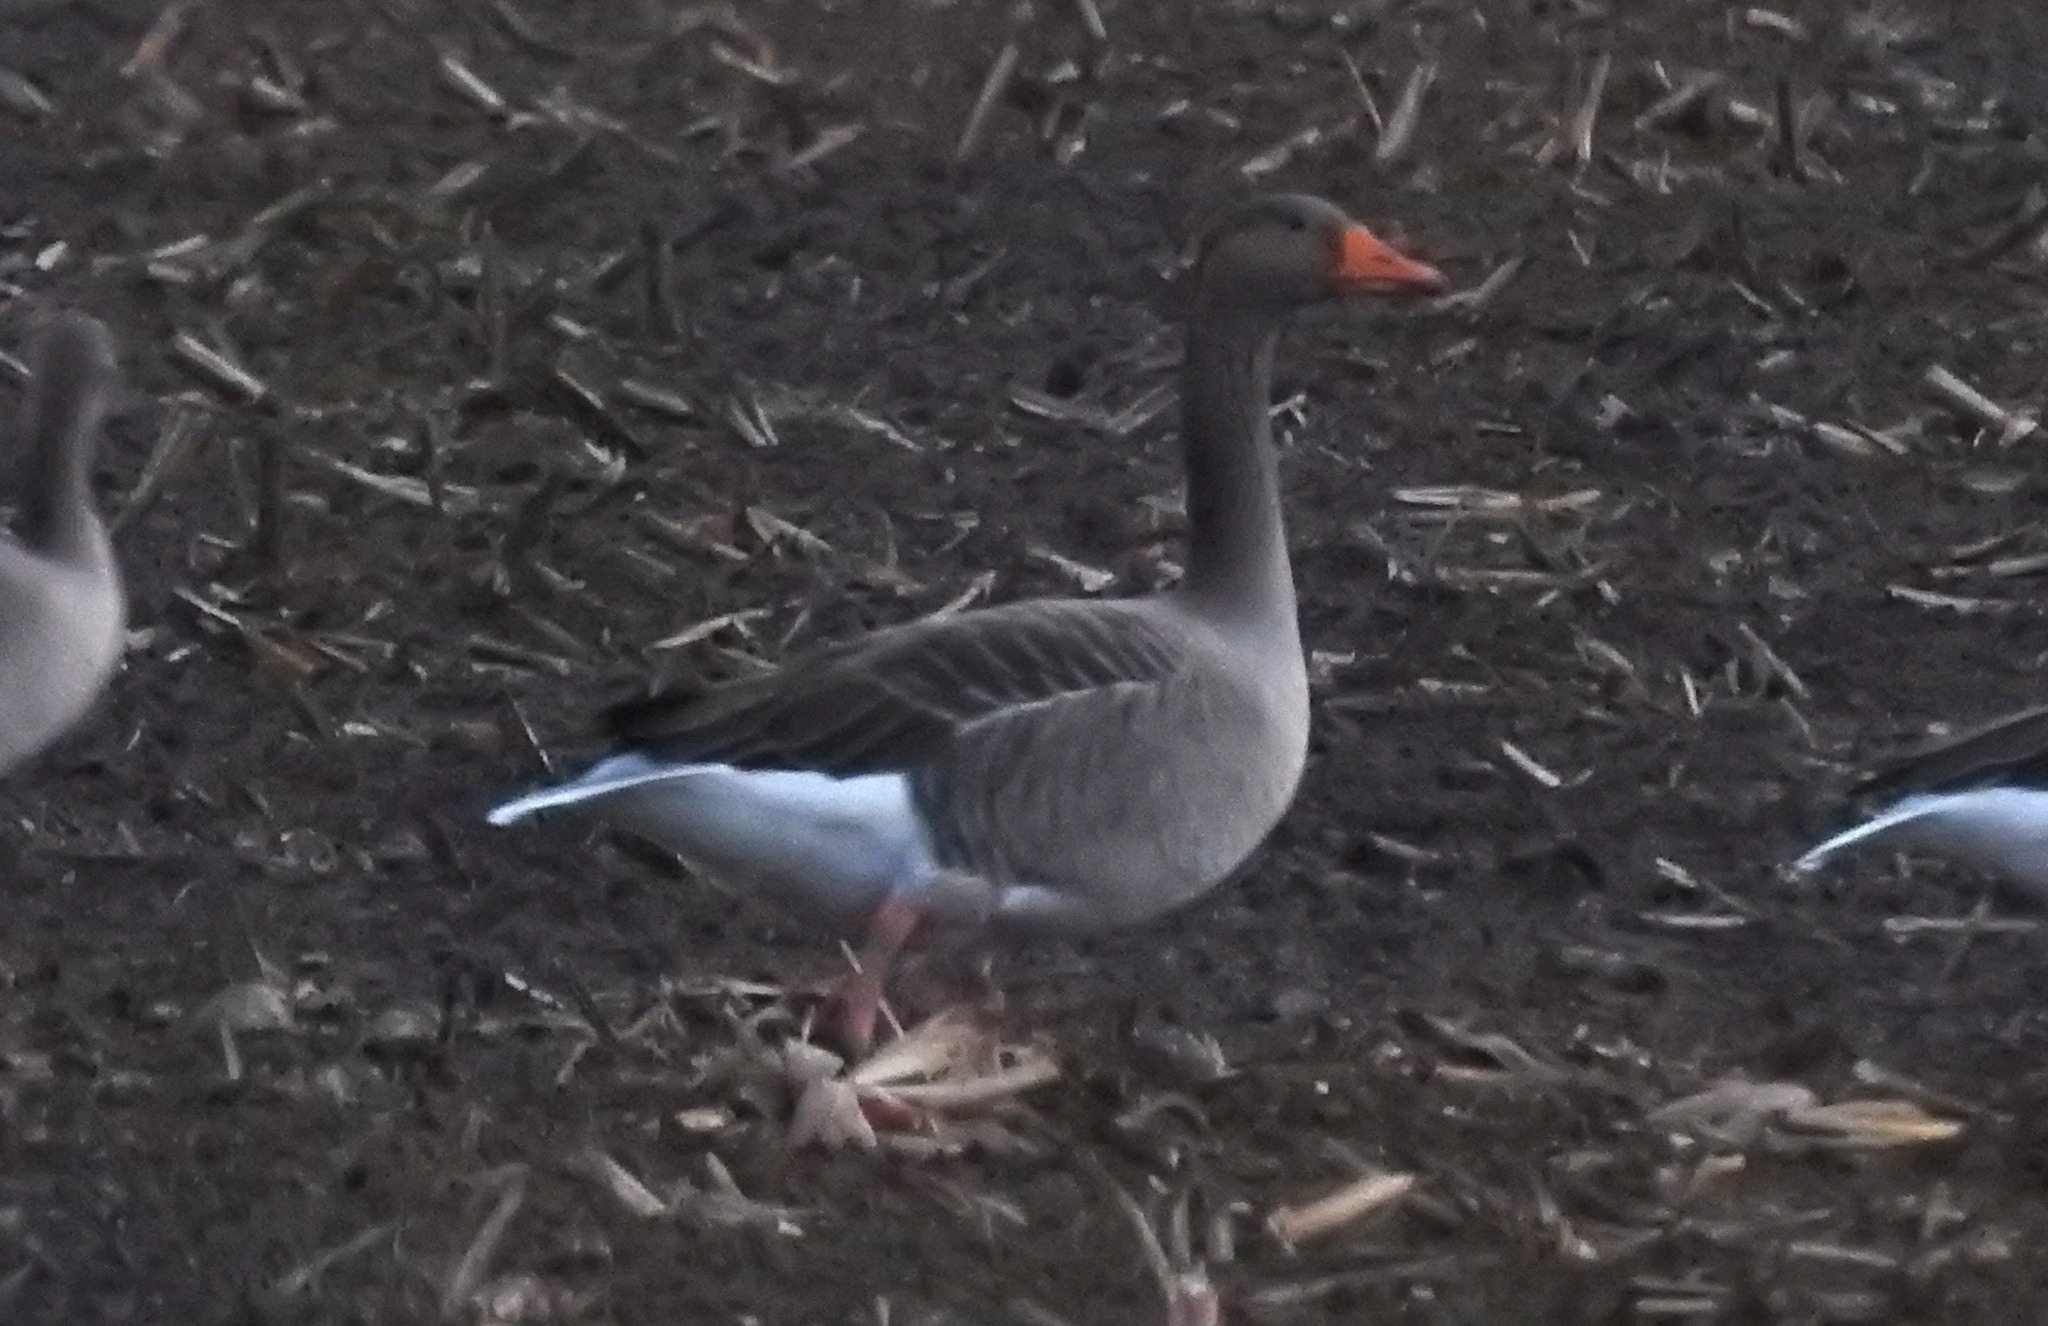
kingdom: Animalia
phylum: Chordata
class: Aves
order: Anseriformes
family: Anatidae
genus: Anser
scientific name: Anser anser
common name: Greylag goose
